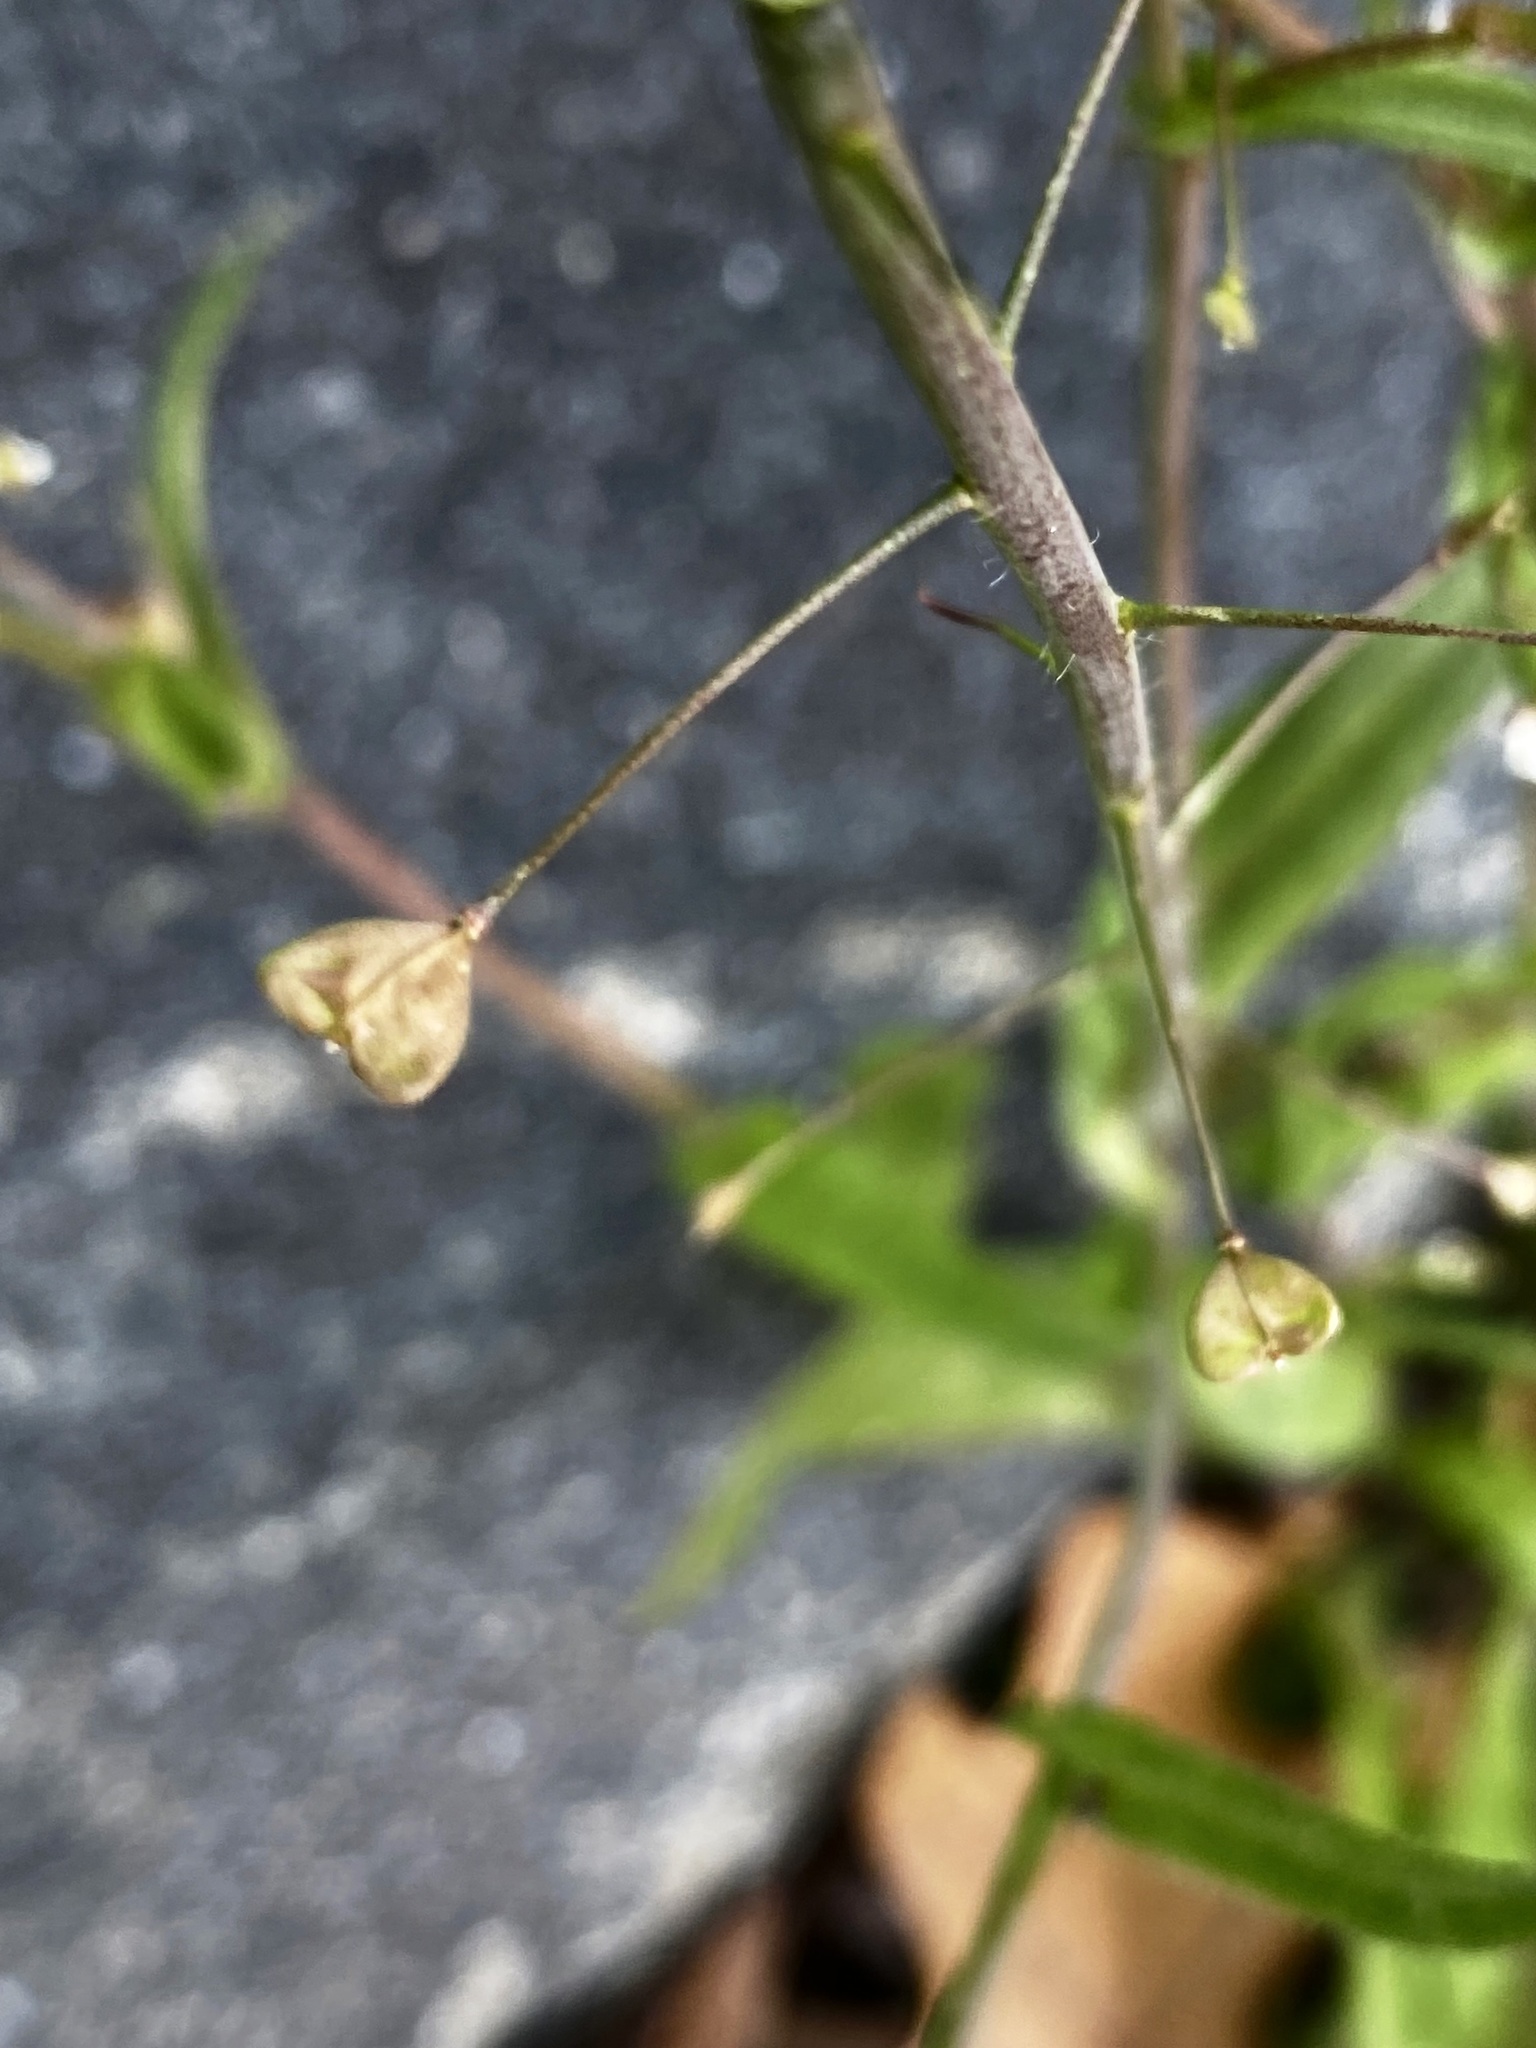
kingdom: Plantae
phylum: Tracheophyta
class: Magnoliopsida
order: Brassicales
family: Brassicaceae
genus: Capsella
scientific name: Capsella bursa-pastoris
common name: Shepherd's purse
